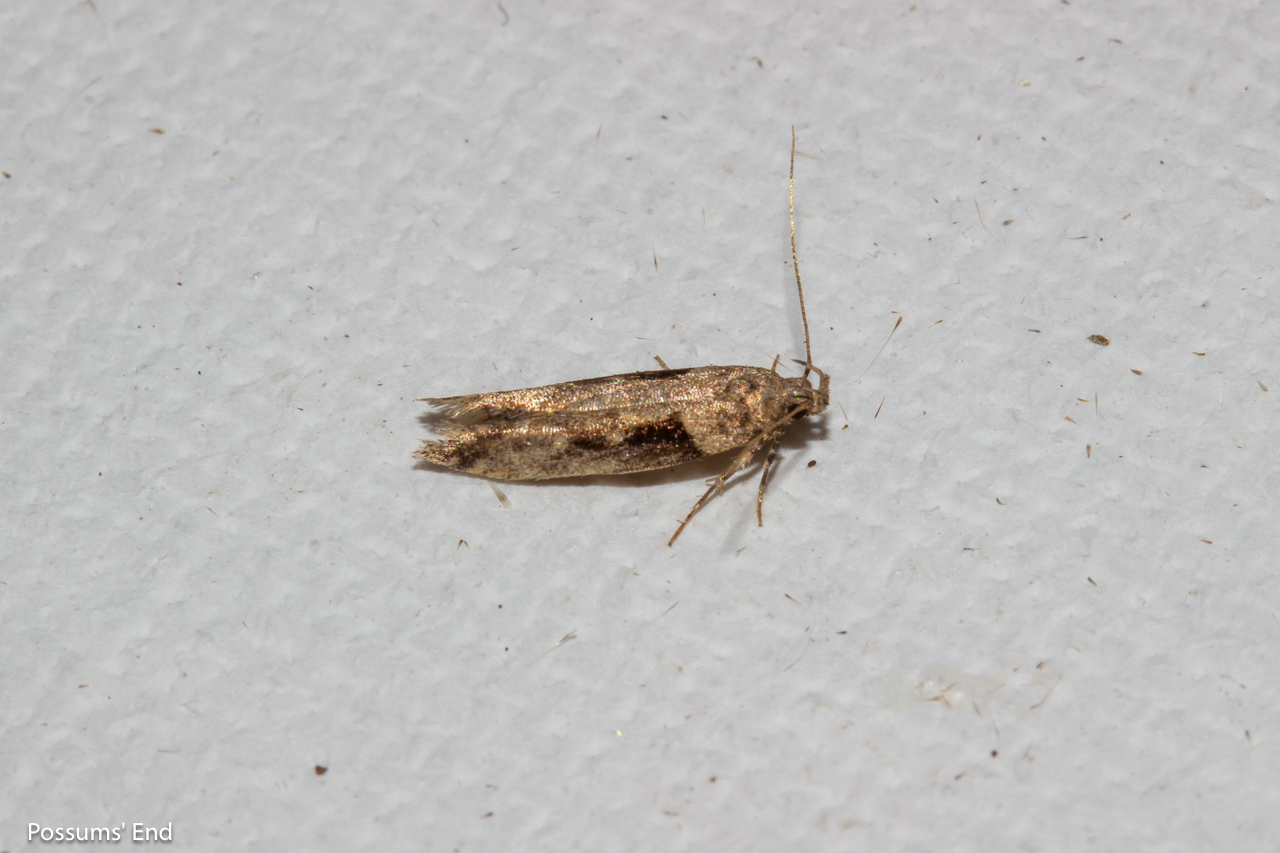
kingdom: Animalia
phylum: Arthropoda
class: Insecta
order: Lepidoptera
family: Gelechiidae
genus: Symmetrischema
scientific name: Symmetrischema tangolias
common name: Moth
